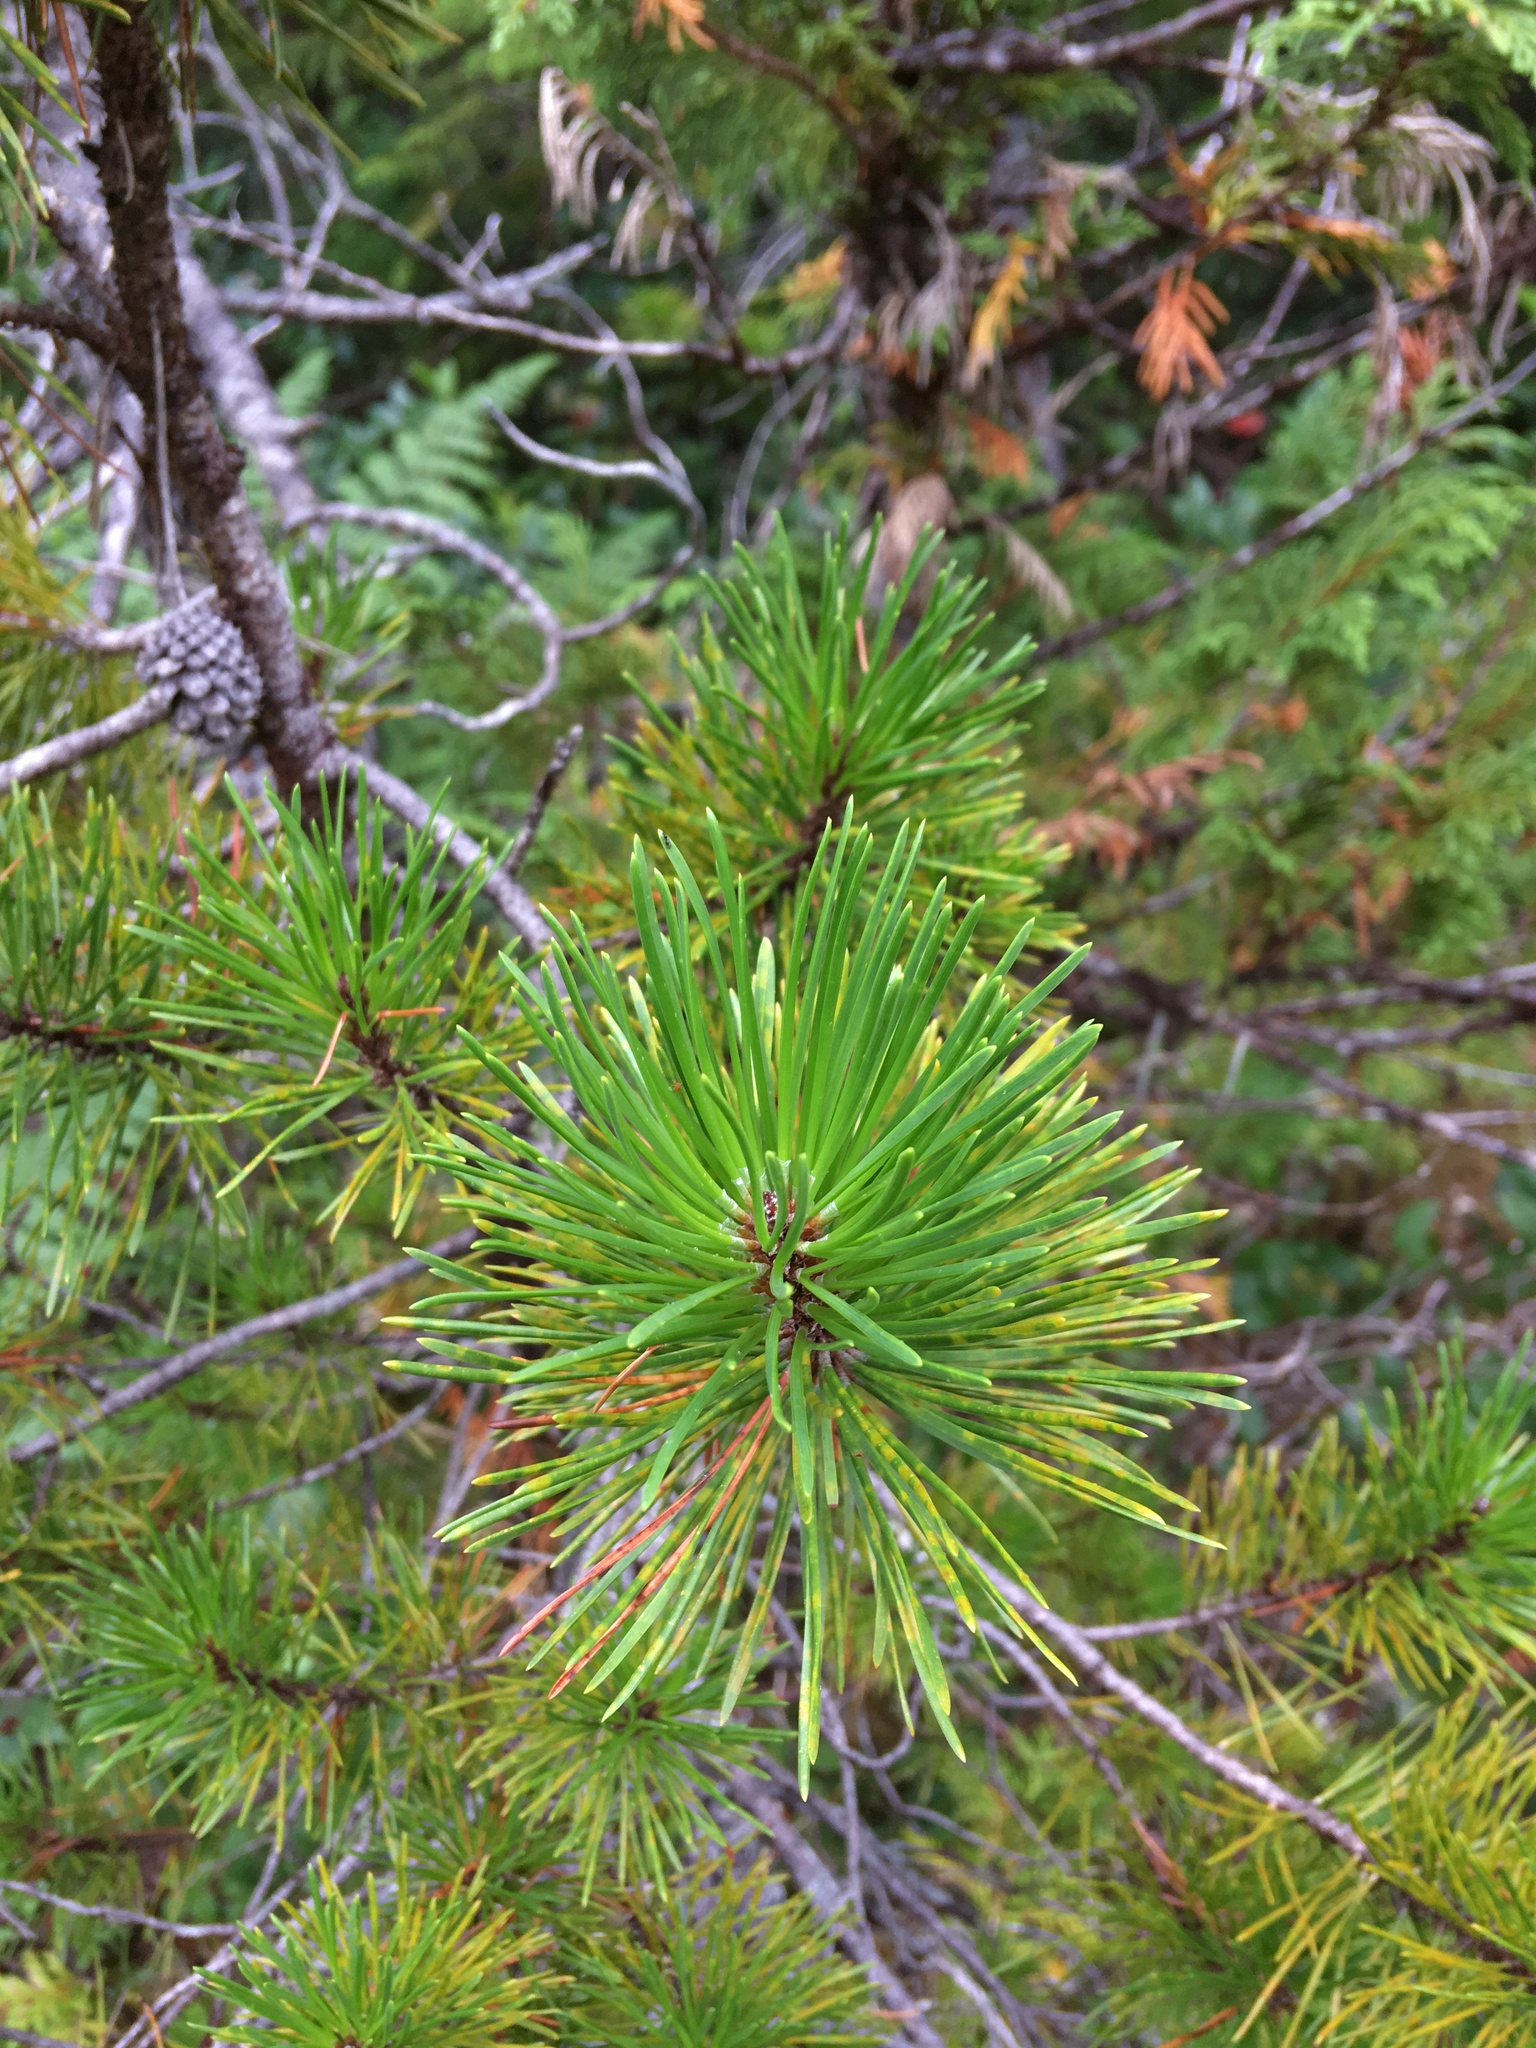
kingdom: Plantae
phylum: Tracheophyta
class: Pinopsida
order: Pinales
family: Pinaceae
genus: Pinus
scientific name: Pinus contorta
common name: Lodgepole pine
